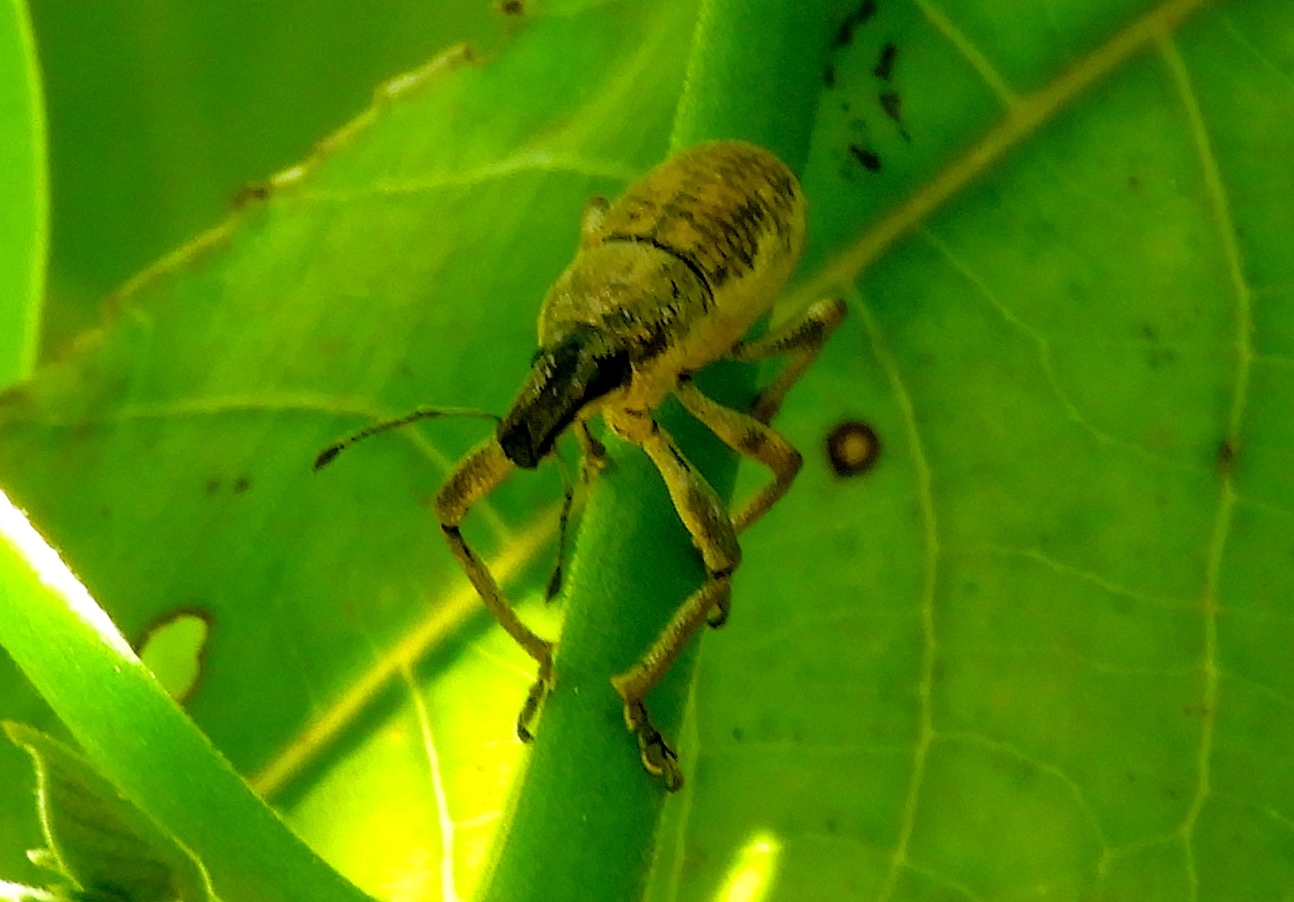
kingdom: Animalia
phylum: Arthropoda
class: Insecta
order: Coleoptera
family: Curculionidae
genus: Epicaerus
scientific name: Epicaerus
